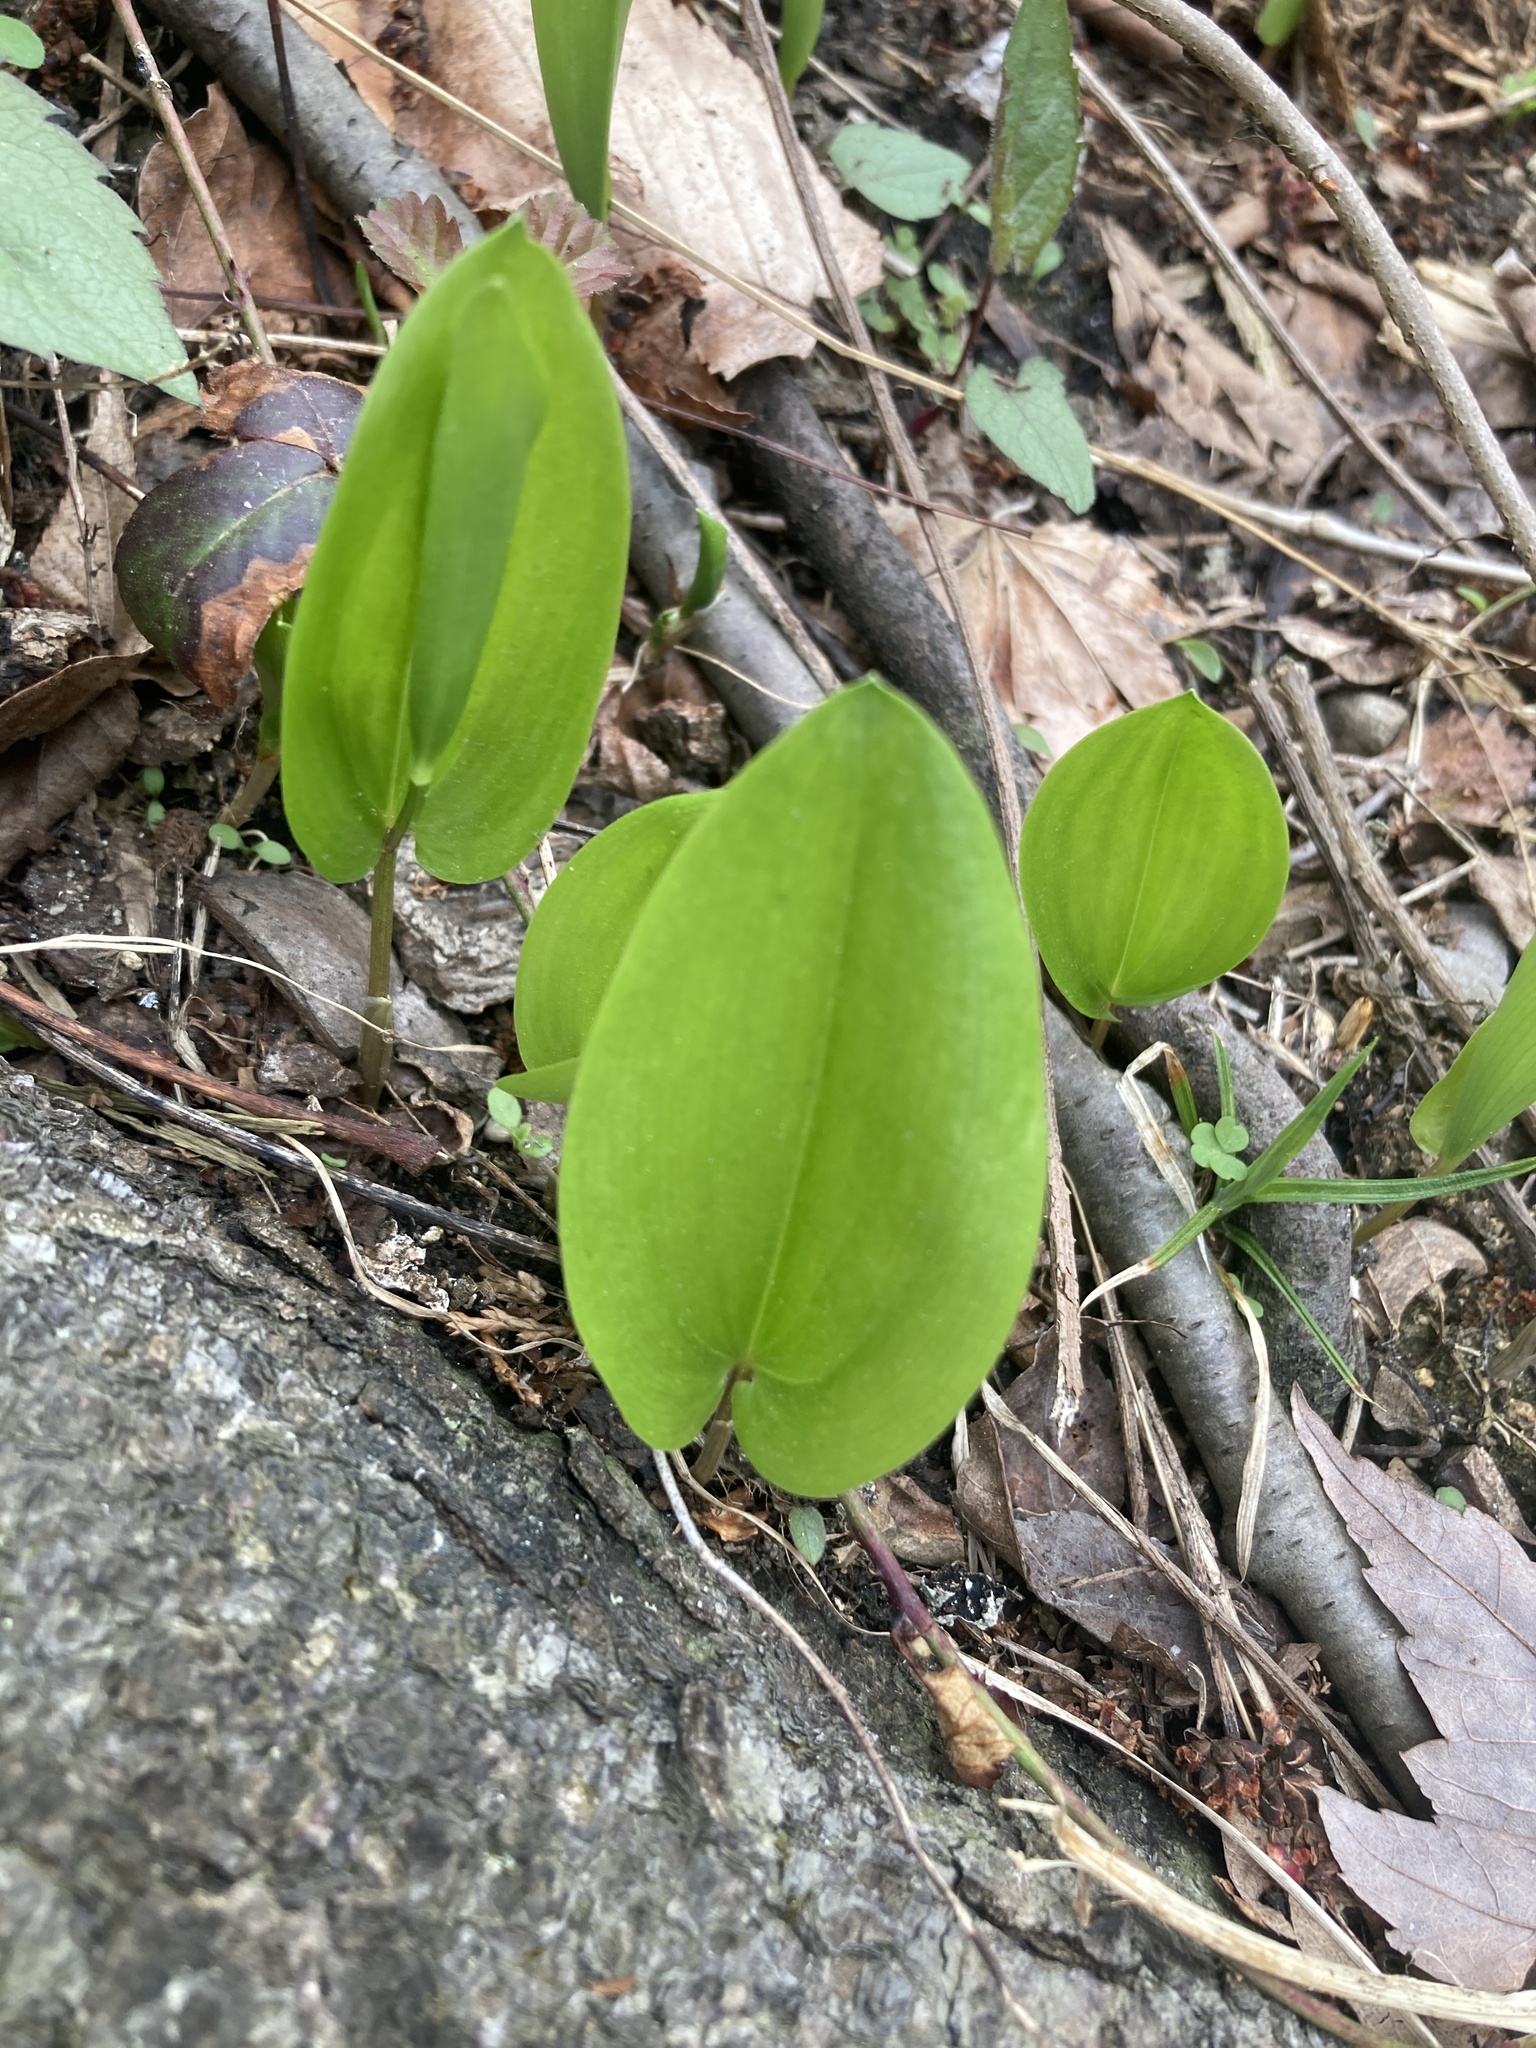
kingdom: Plantae
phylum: Tracheophyta
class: Liliopsida
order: Asparagales
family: Asparagaceae
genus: Maianthemum
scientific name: Maianthemum canadense
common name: False lily-of-the-valley
